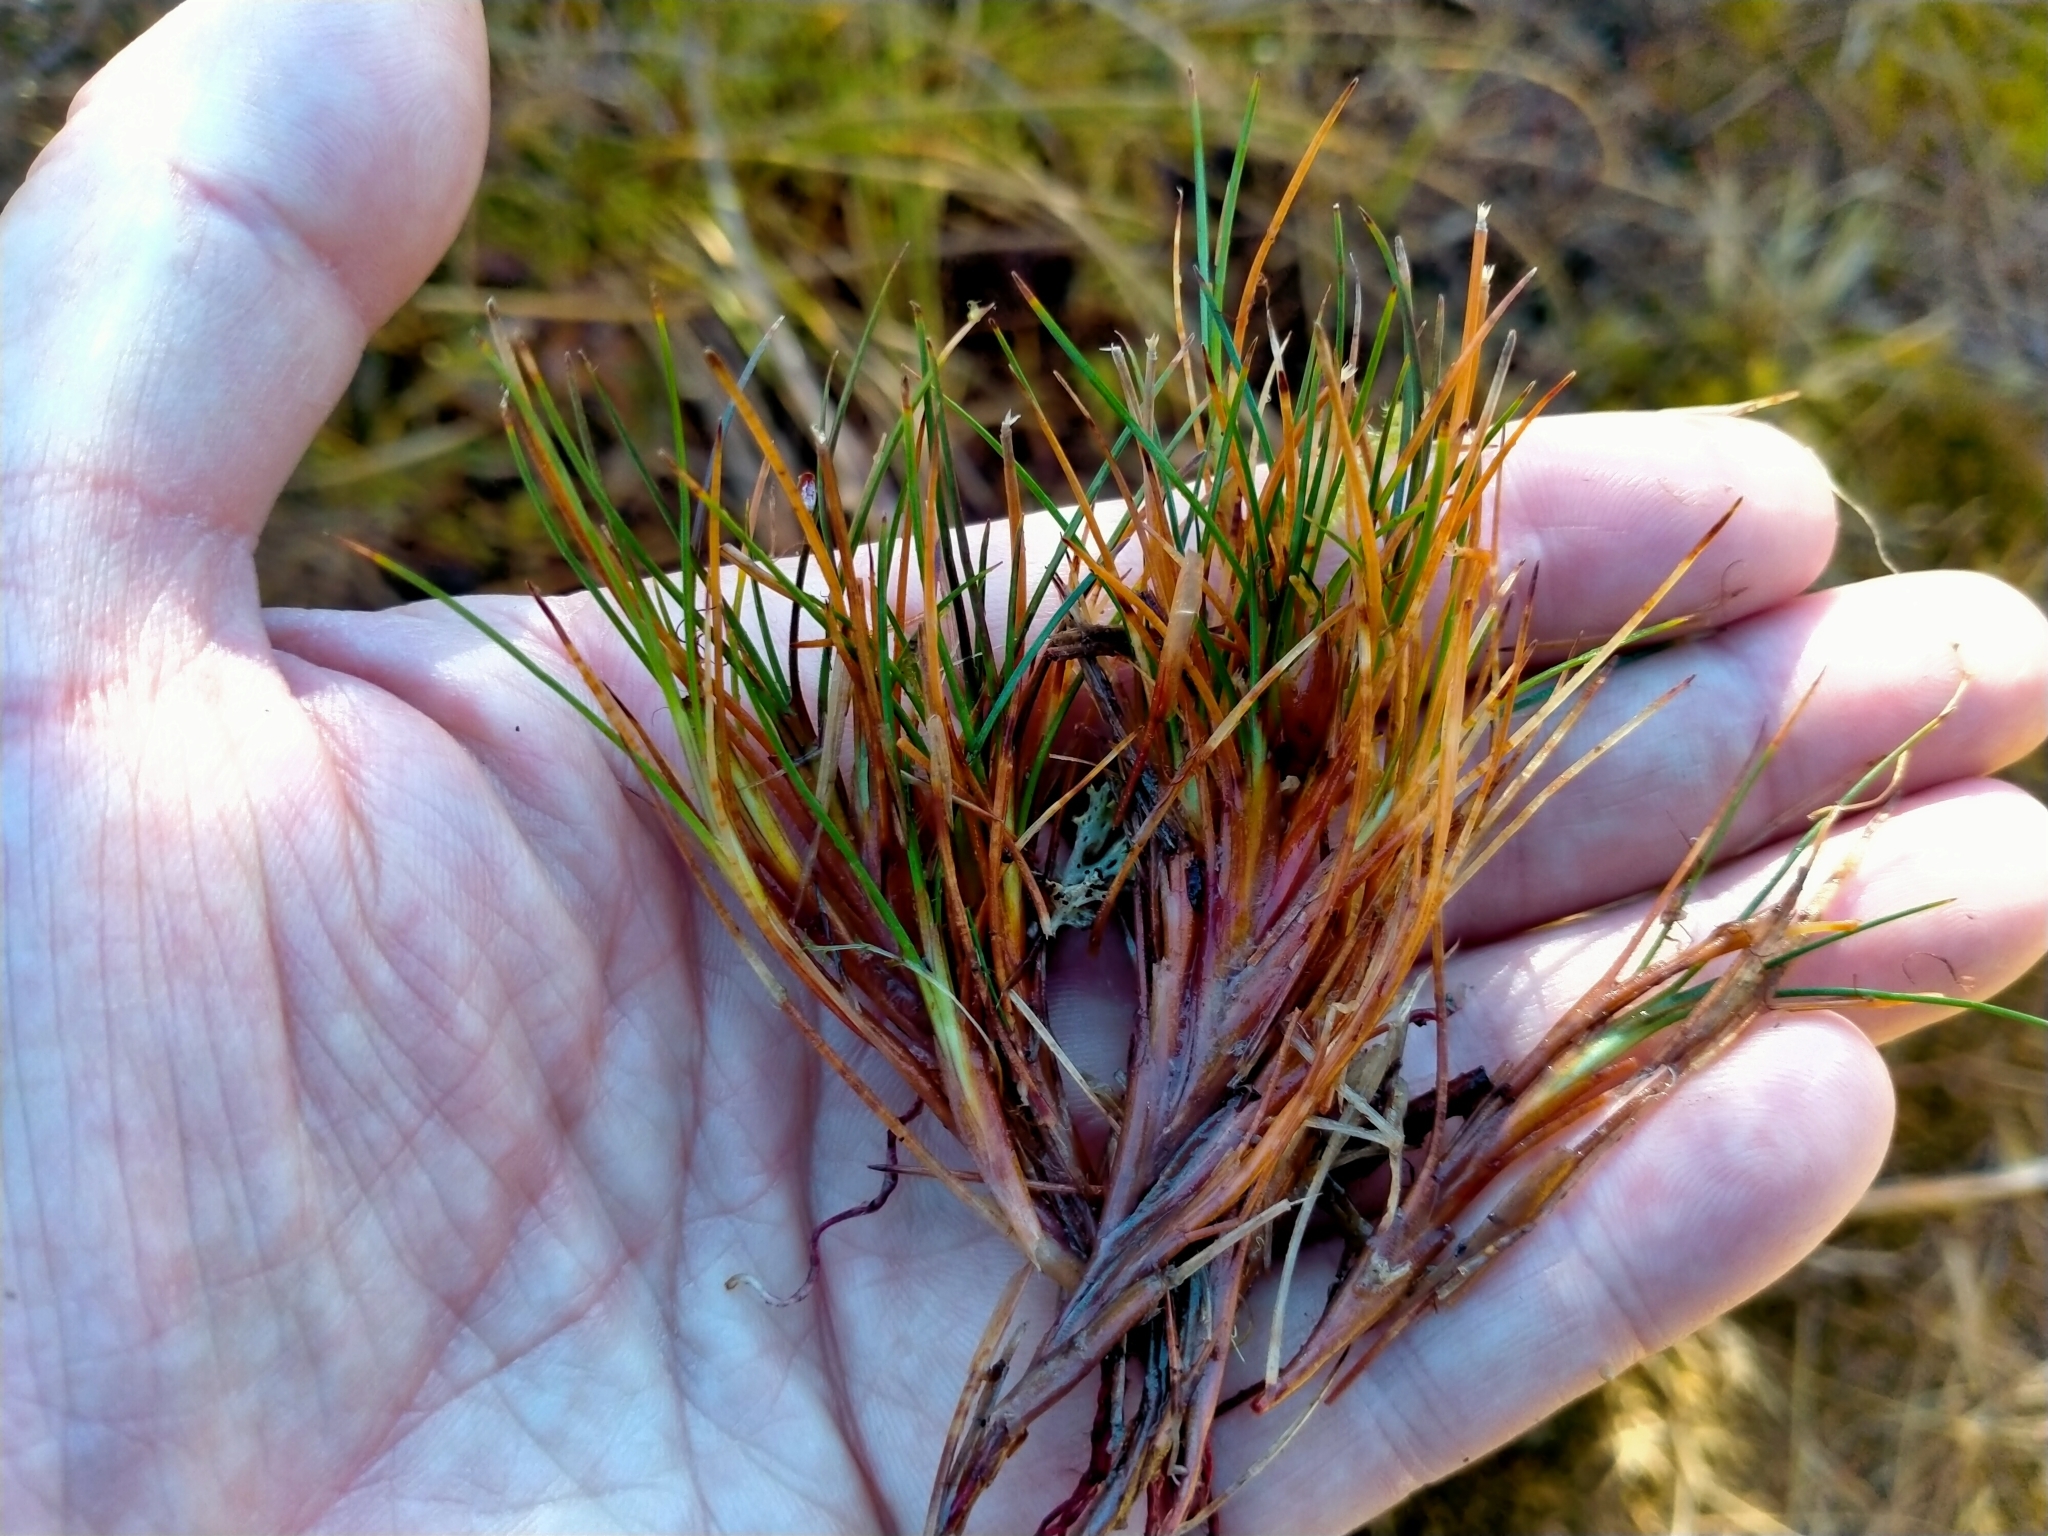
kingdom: Plantae
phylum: Tracheophyta
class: Liliopsida
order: Poales
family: Cyperaceae
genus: Oreobolus
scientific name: Oreobolus strictus
